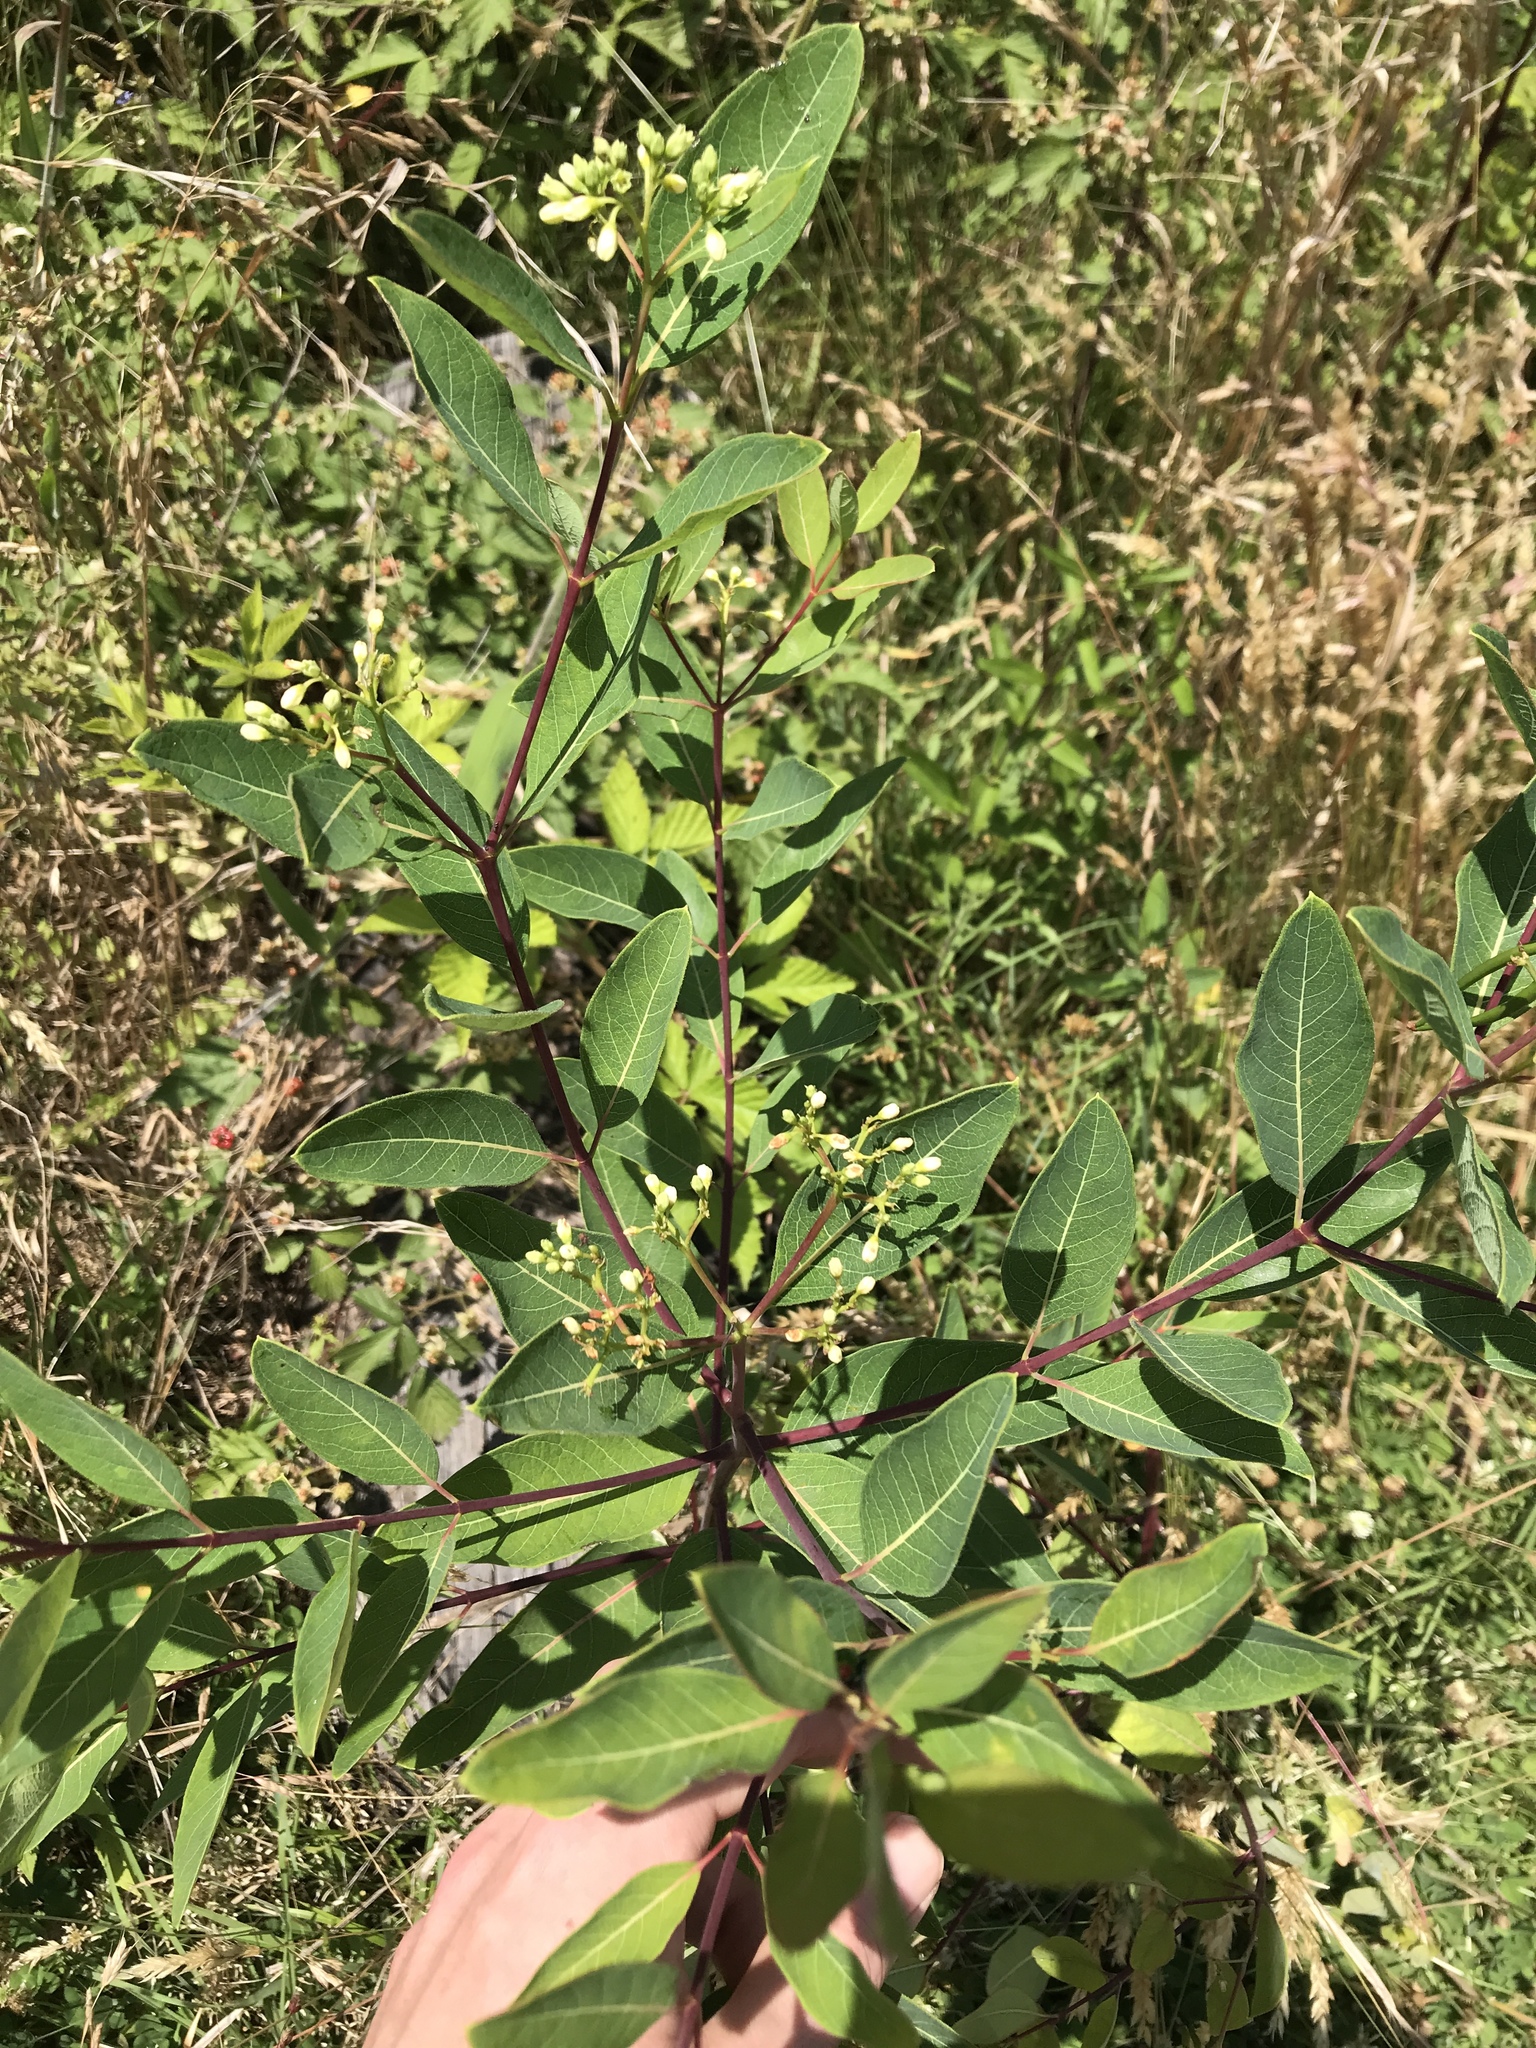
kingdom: Plantae
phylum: Tracheophyta
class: Magnoliopsida
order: Gentianales
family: Apocynaceae
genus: Apocynum
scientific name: Apocynum cannabinum
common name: Hemp dogbane
